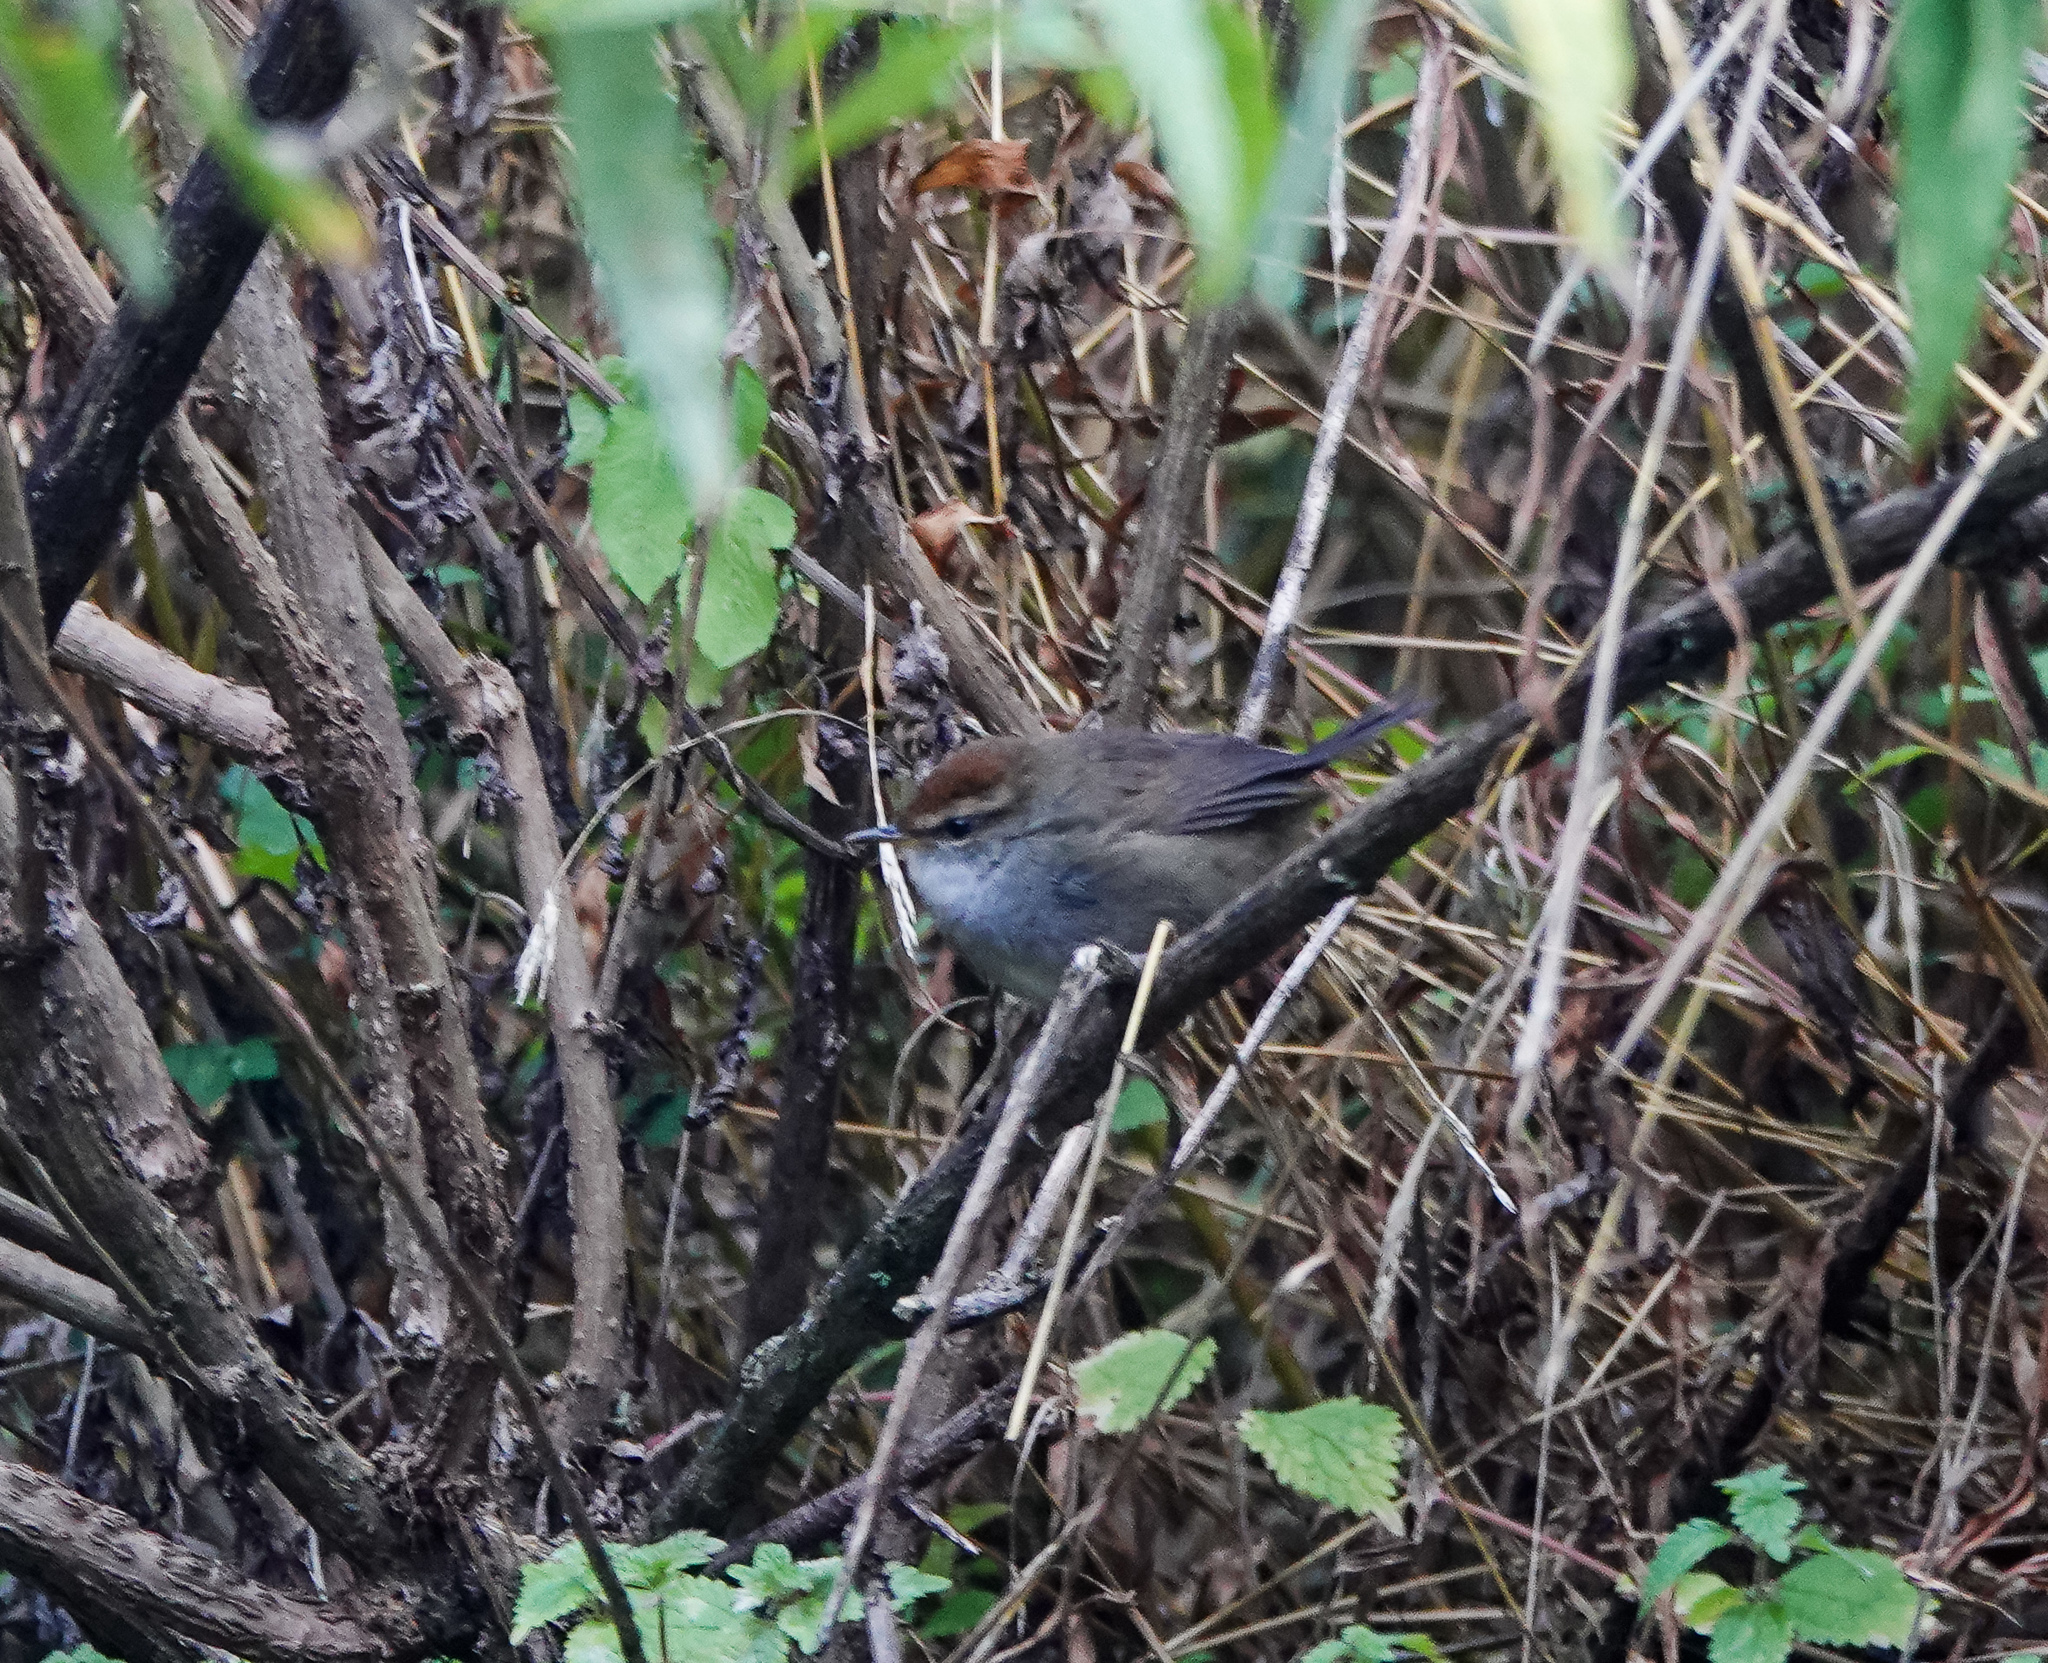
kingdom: Animalia
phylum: Chordata
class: Aves
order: Passeriformes
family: Cettiidae
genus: Cettia
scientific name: Cettia brunnifrons
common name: Grey-sided bush warbler
